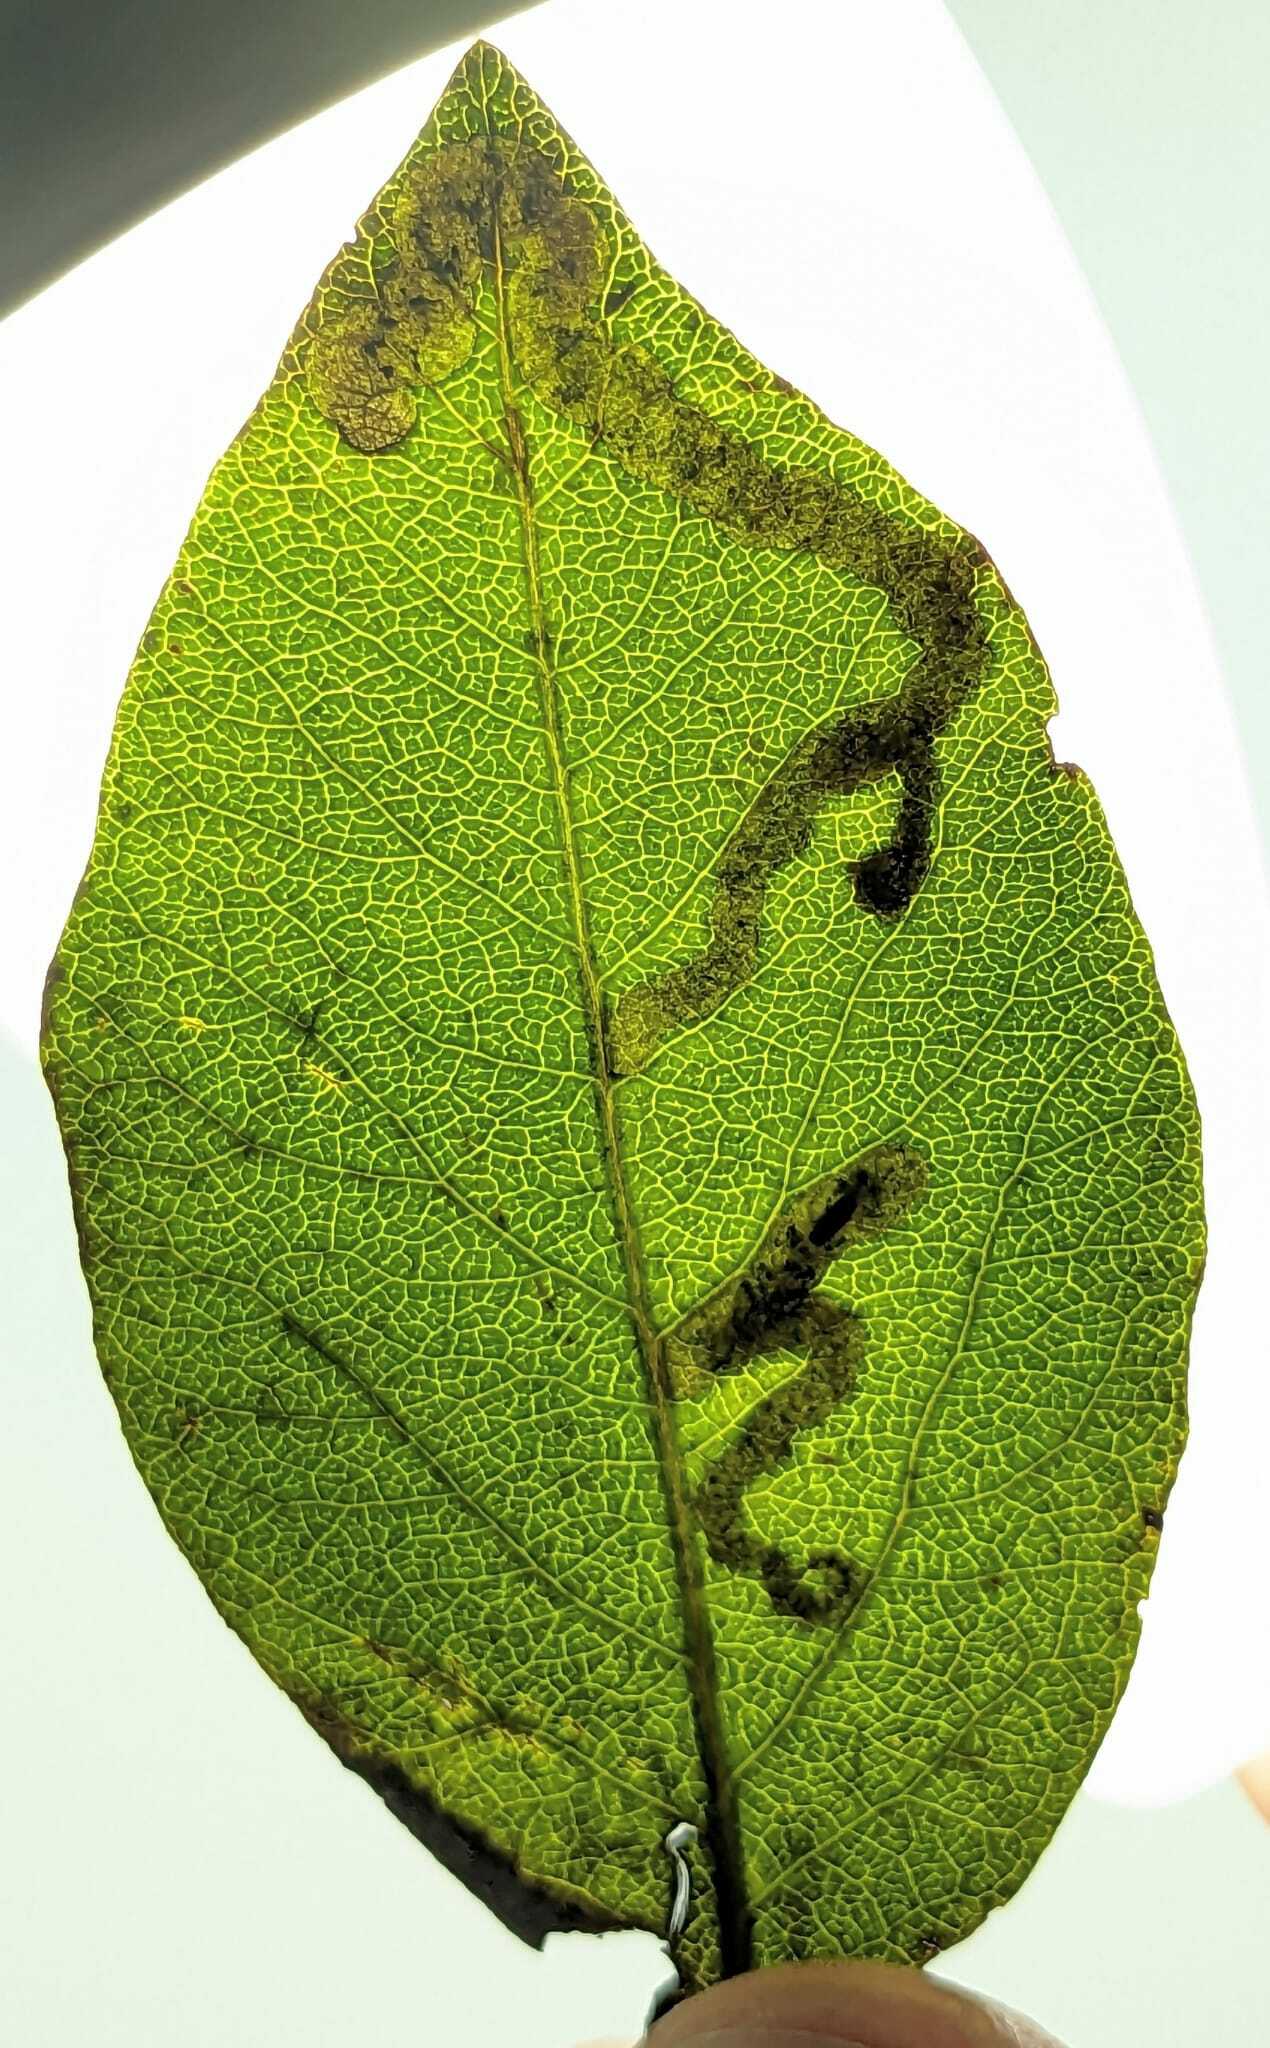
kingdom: Animalia
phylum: Arthropoda
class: Insecta
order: Diptera
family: Agromyzidae
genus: Aulagromyza
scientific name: Aulagromyza luteoscutellata
